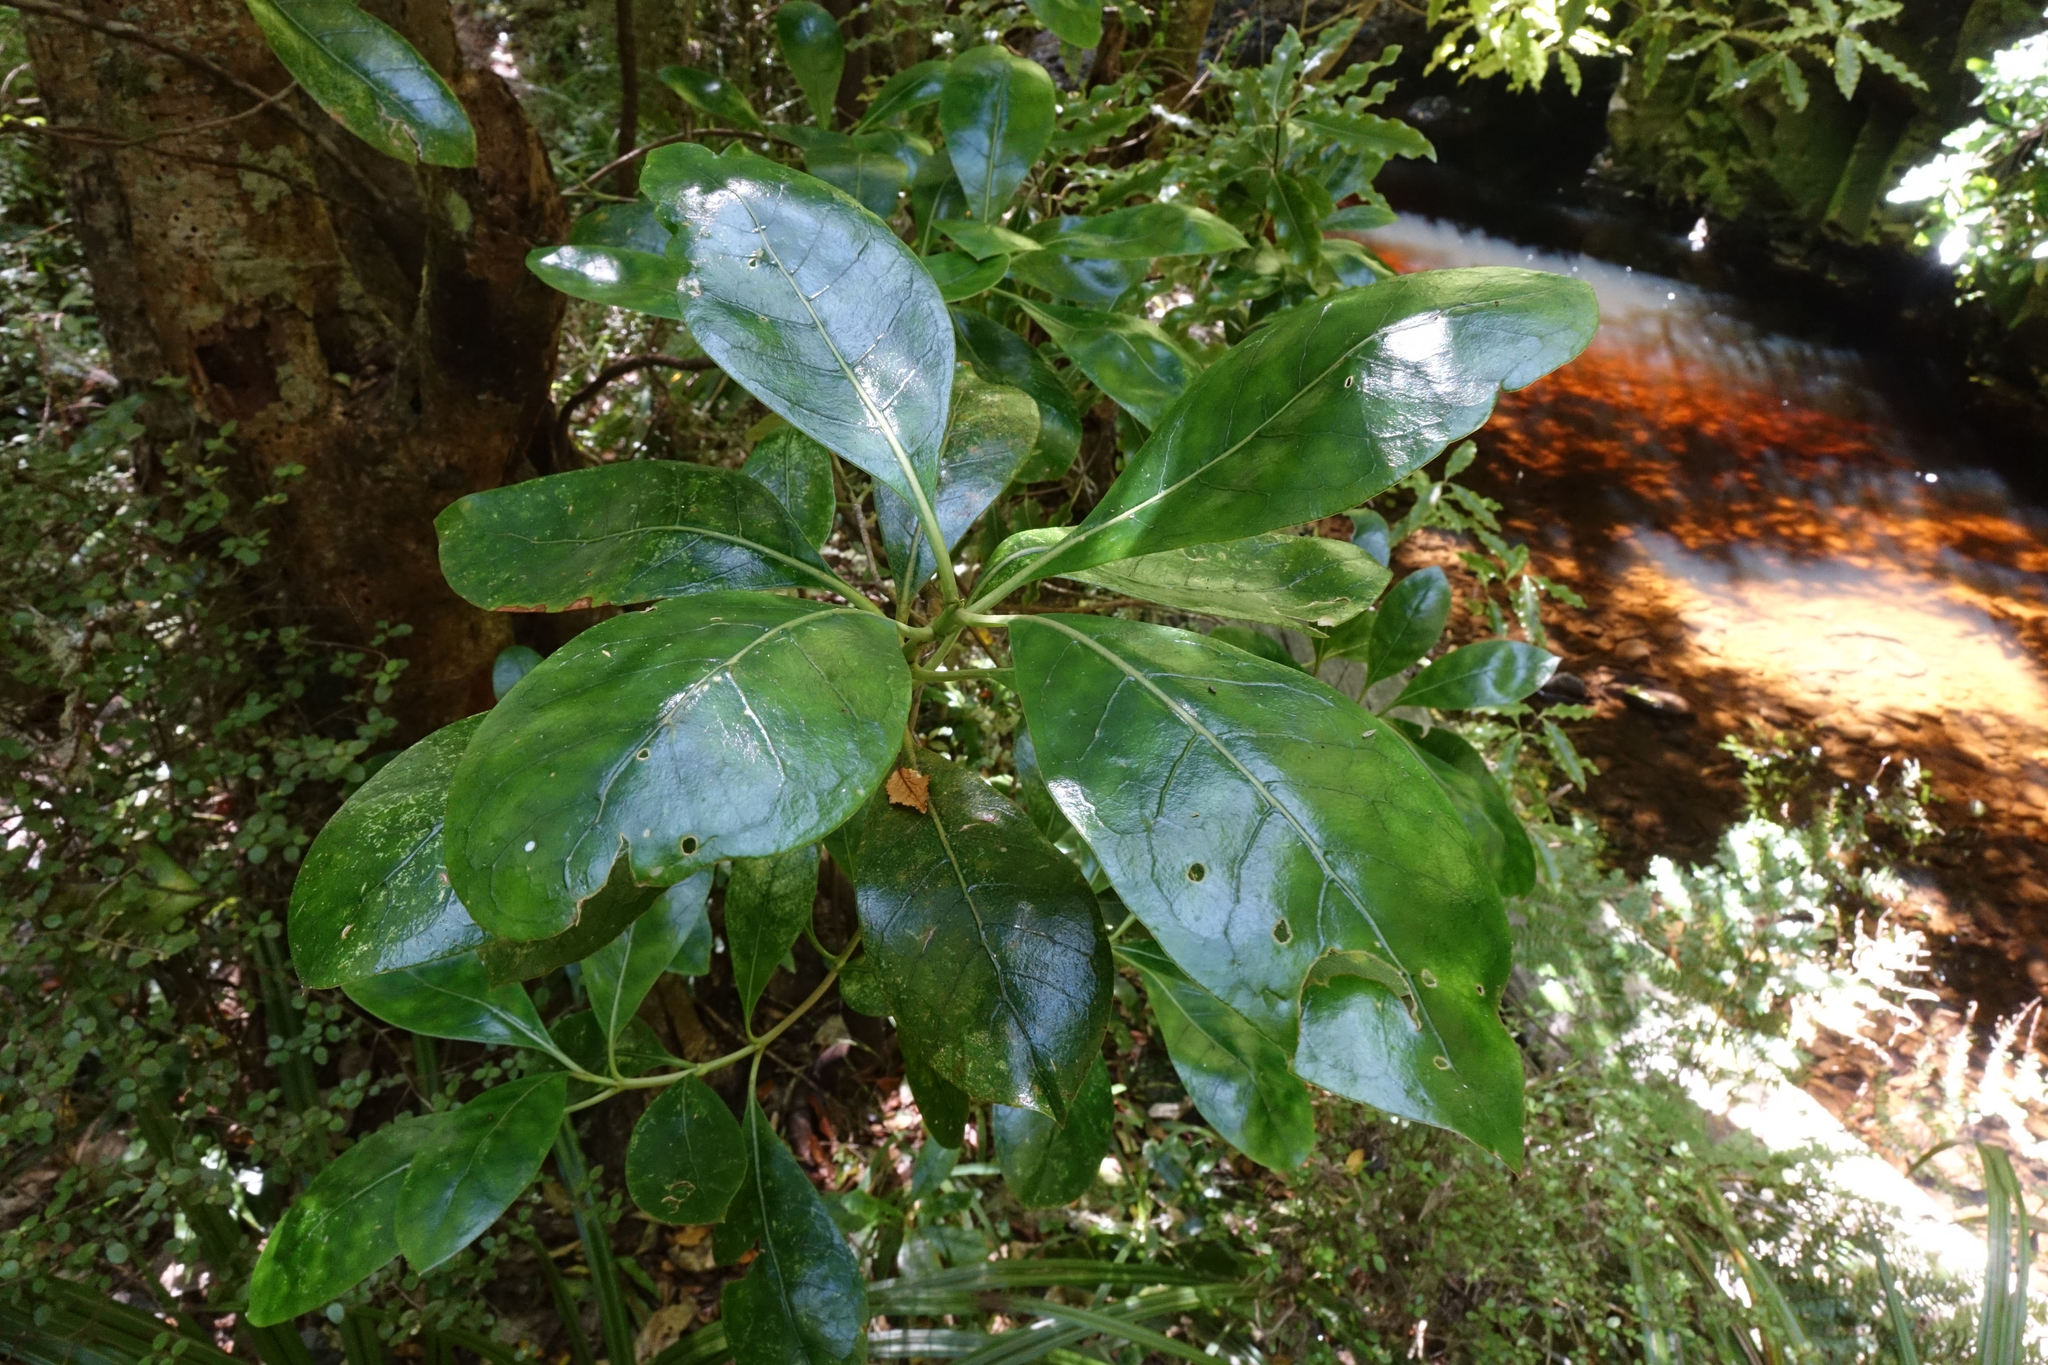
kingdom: Plantae
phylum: Tracheophyta
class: Magnoliopsida
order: Gentianales
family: Rubiaceae
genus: Coprosma
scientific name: Coprosma lucida
